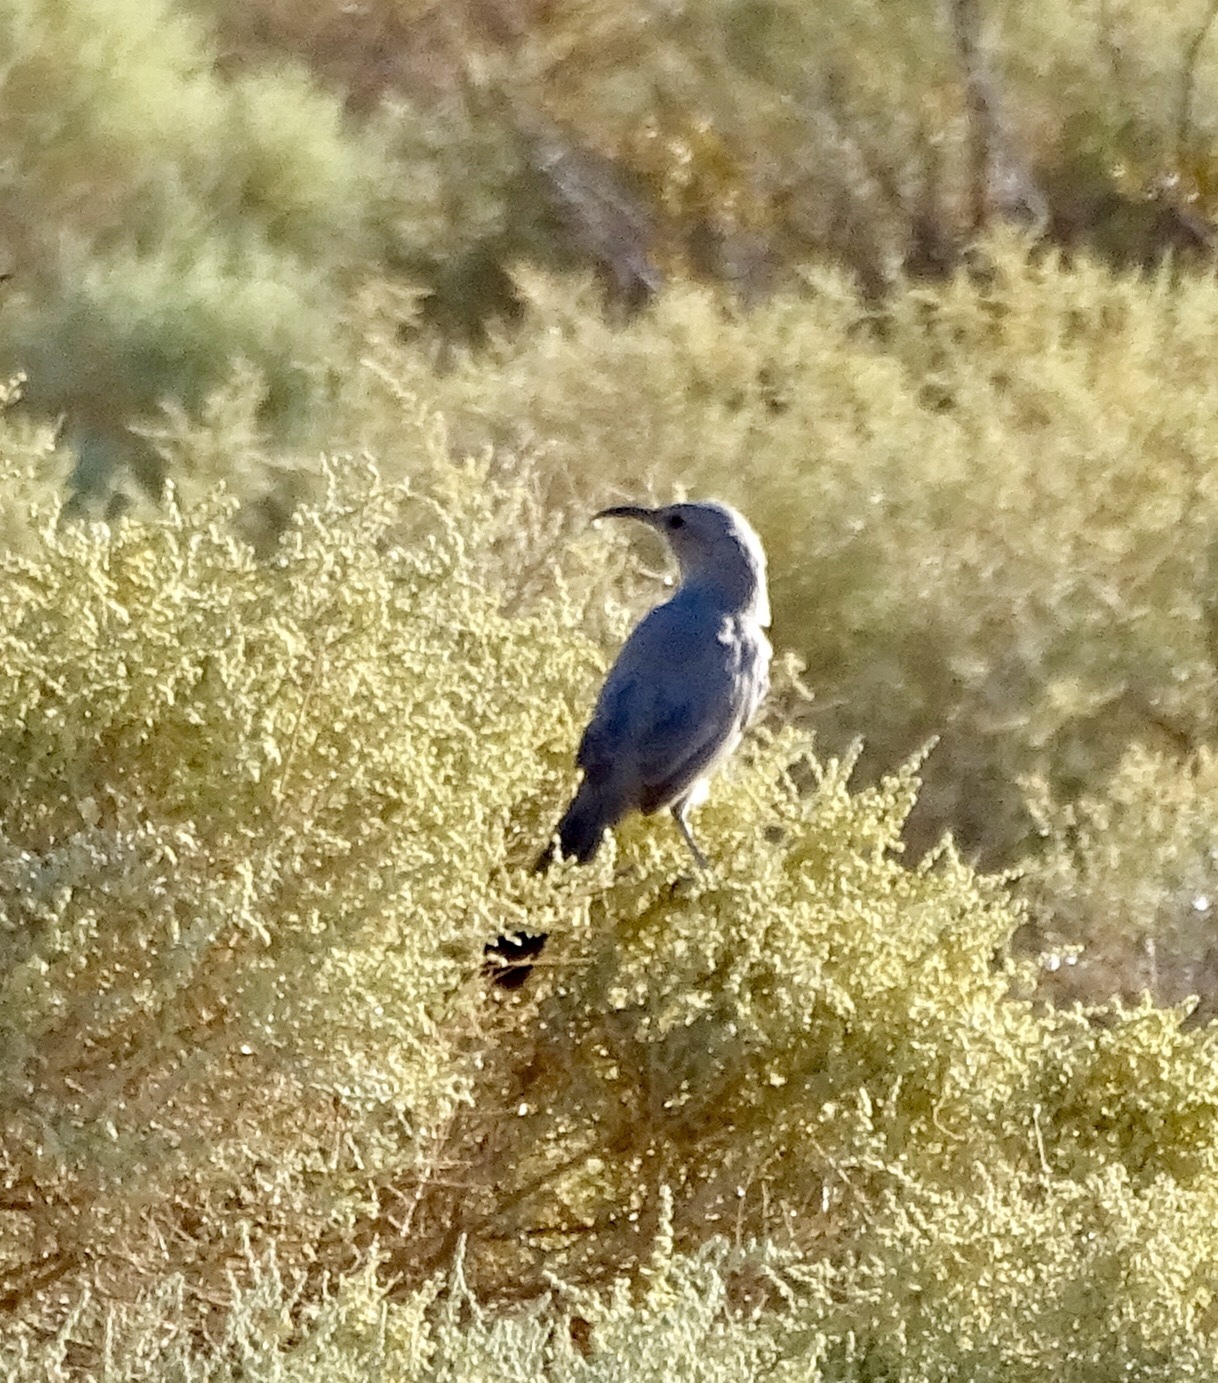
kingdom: Animalia
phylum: Chordata
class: Aves
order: Passeriformes
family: Mimidae
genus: Toxostoma
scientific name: Toxostoma lecontei
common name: Le conte's thrasher
